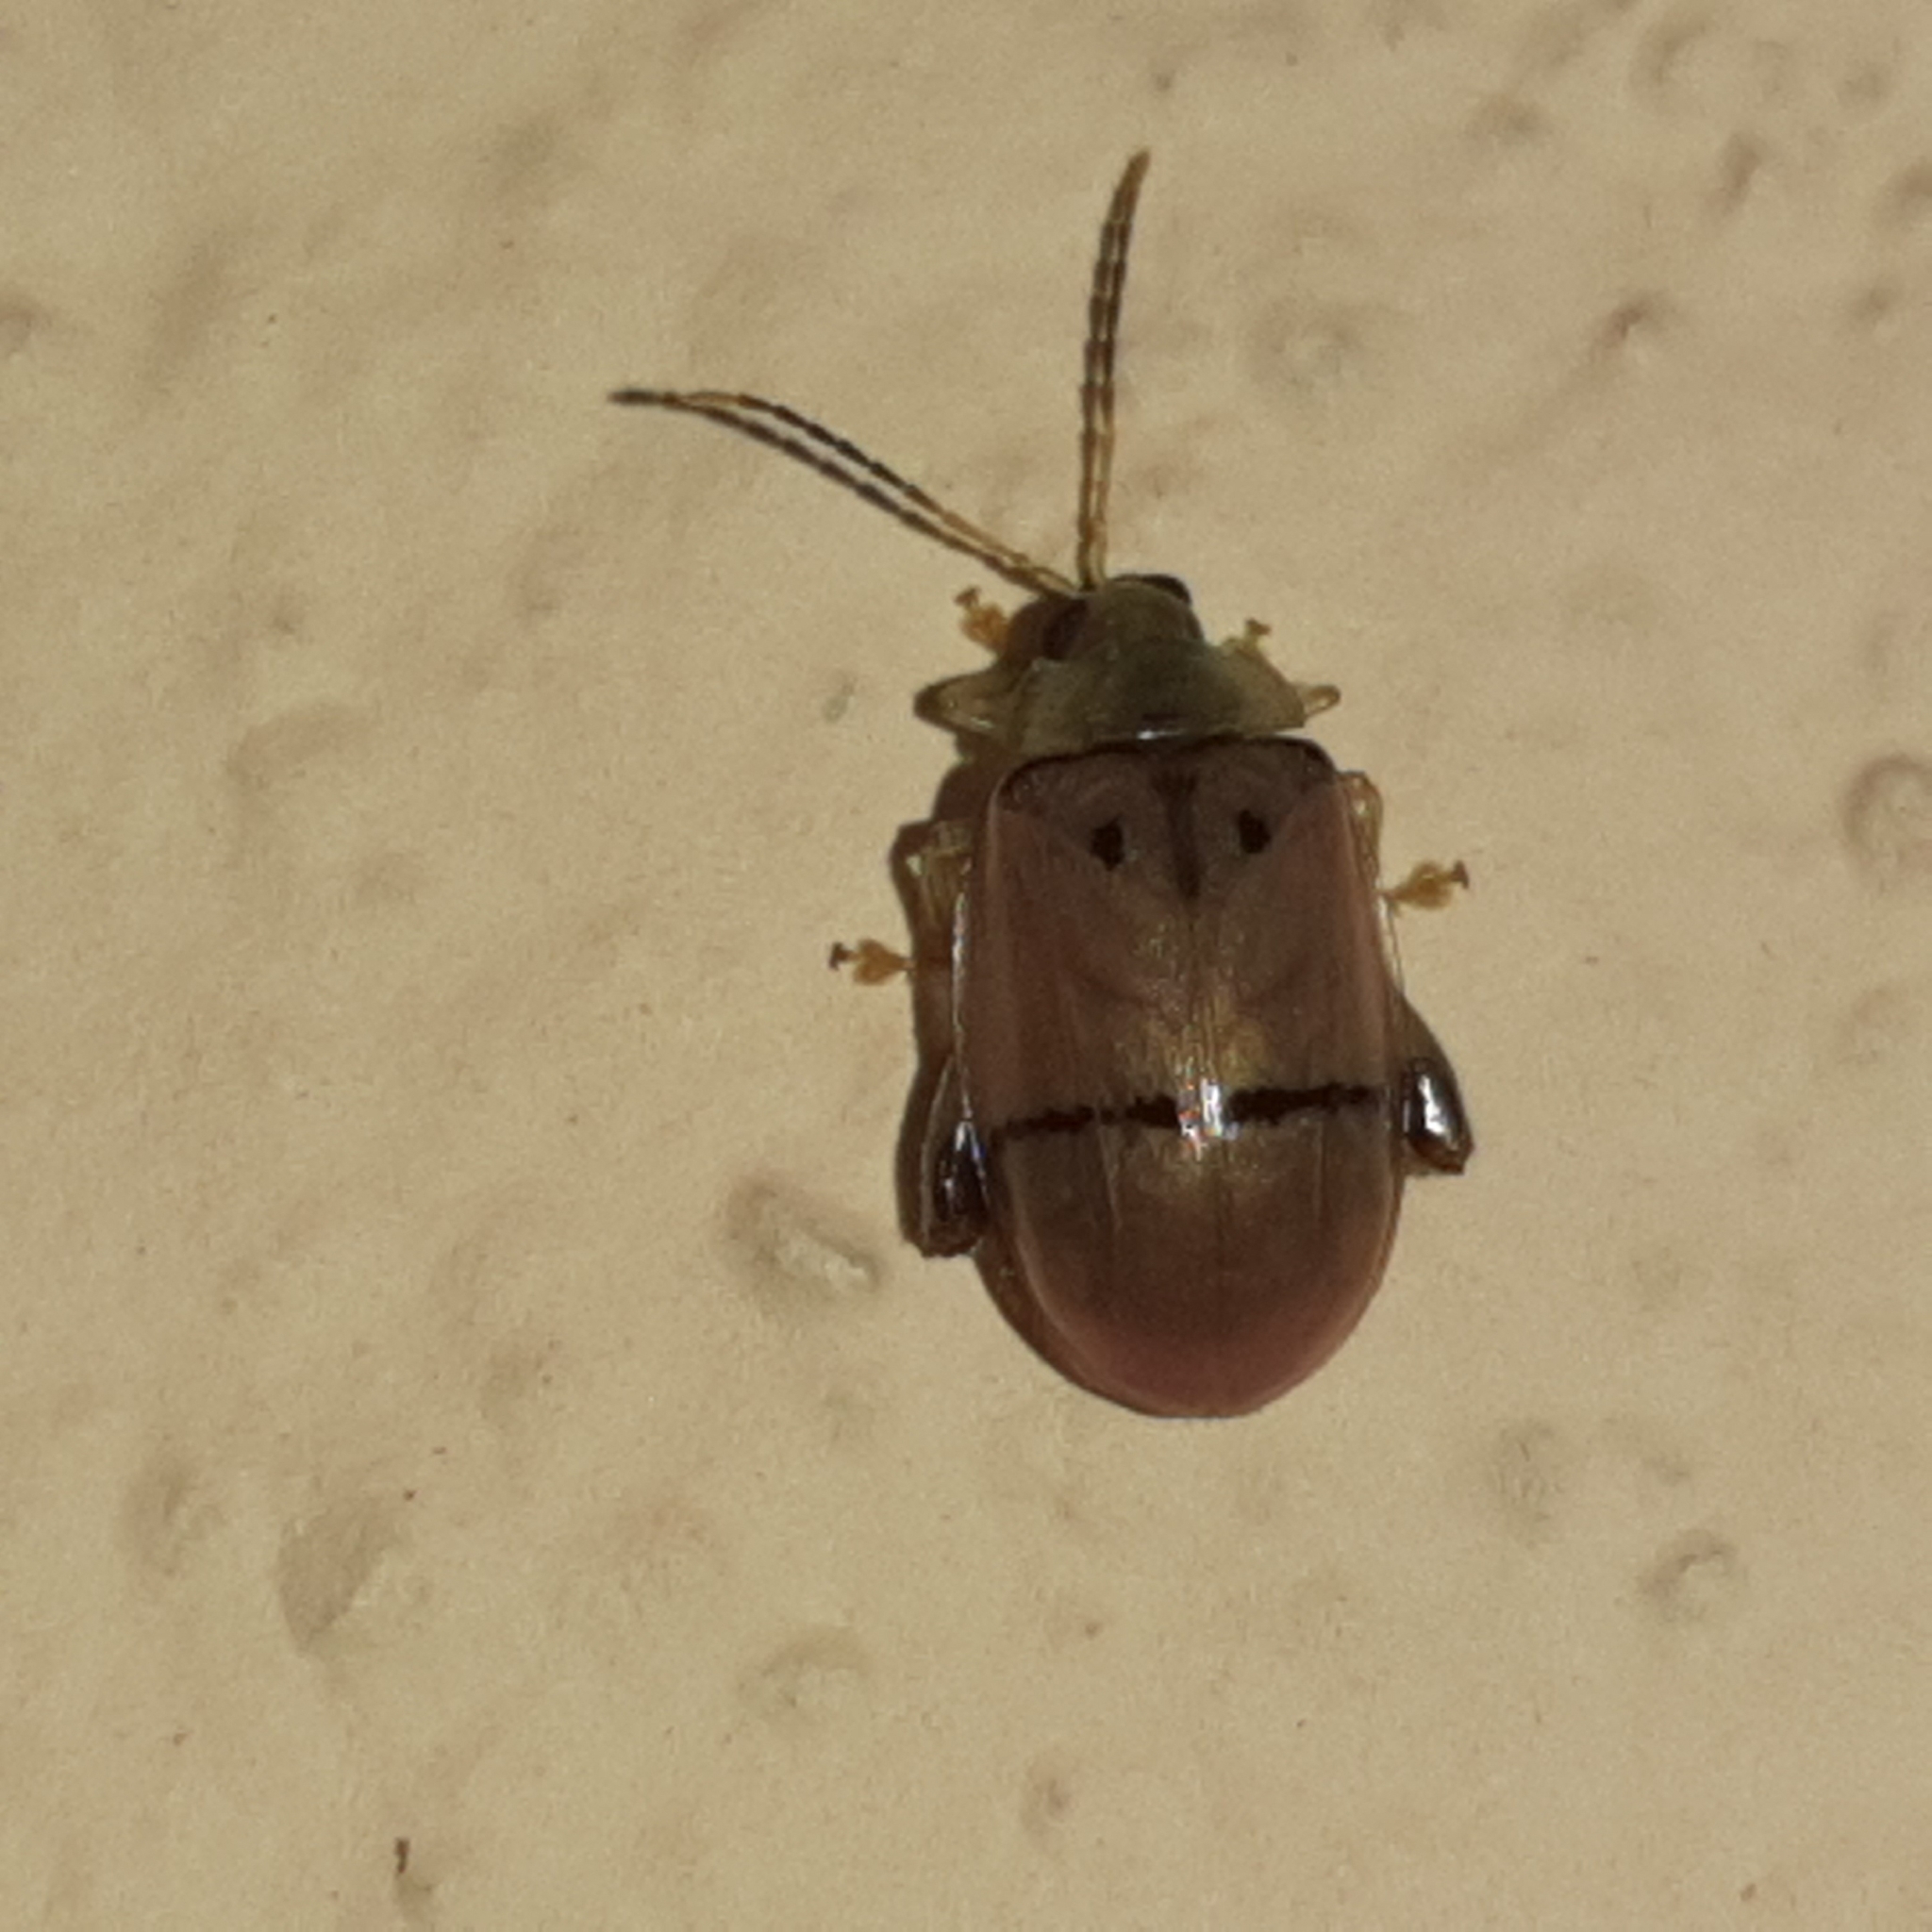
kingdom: Animalia
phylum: Arthropoda
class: Insecta
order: Coleoptera
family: Chrysomelidae
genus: Walterianella
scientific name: Walterianella
